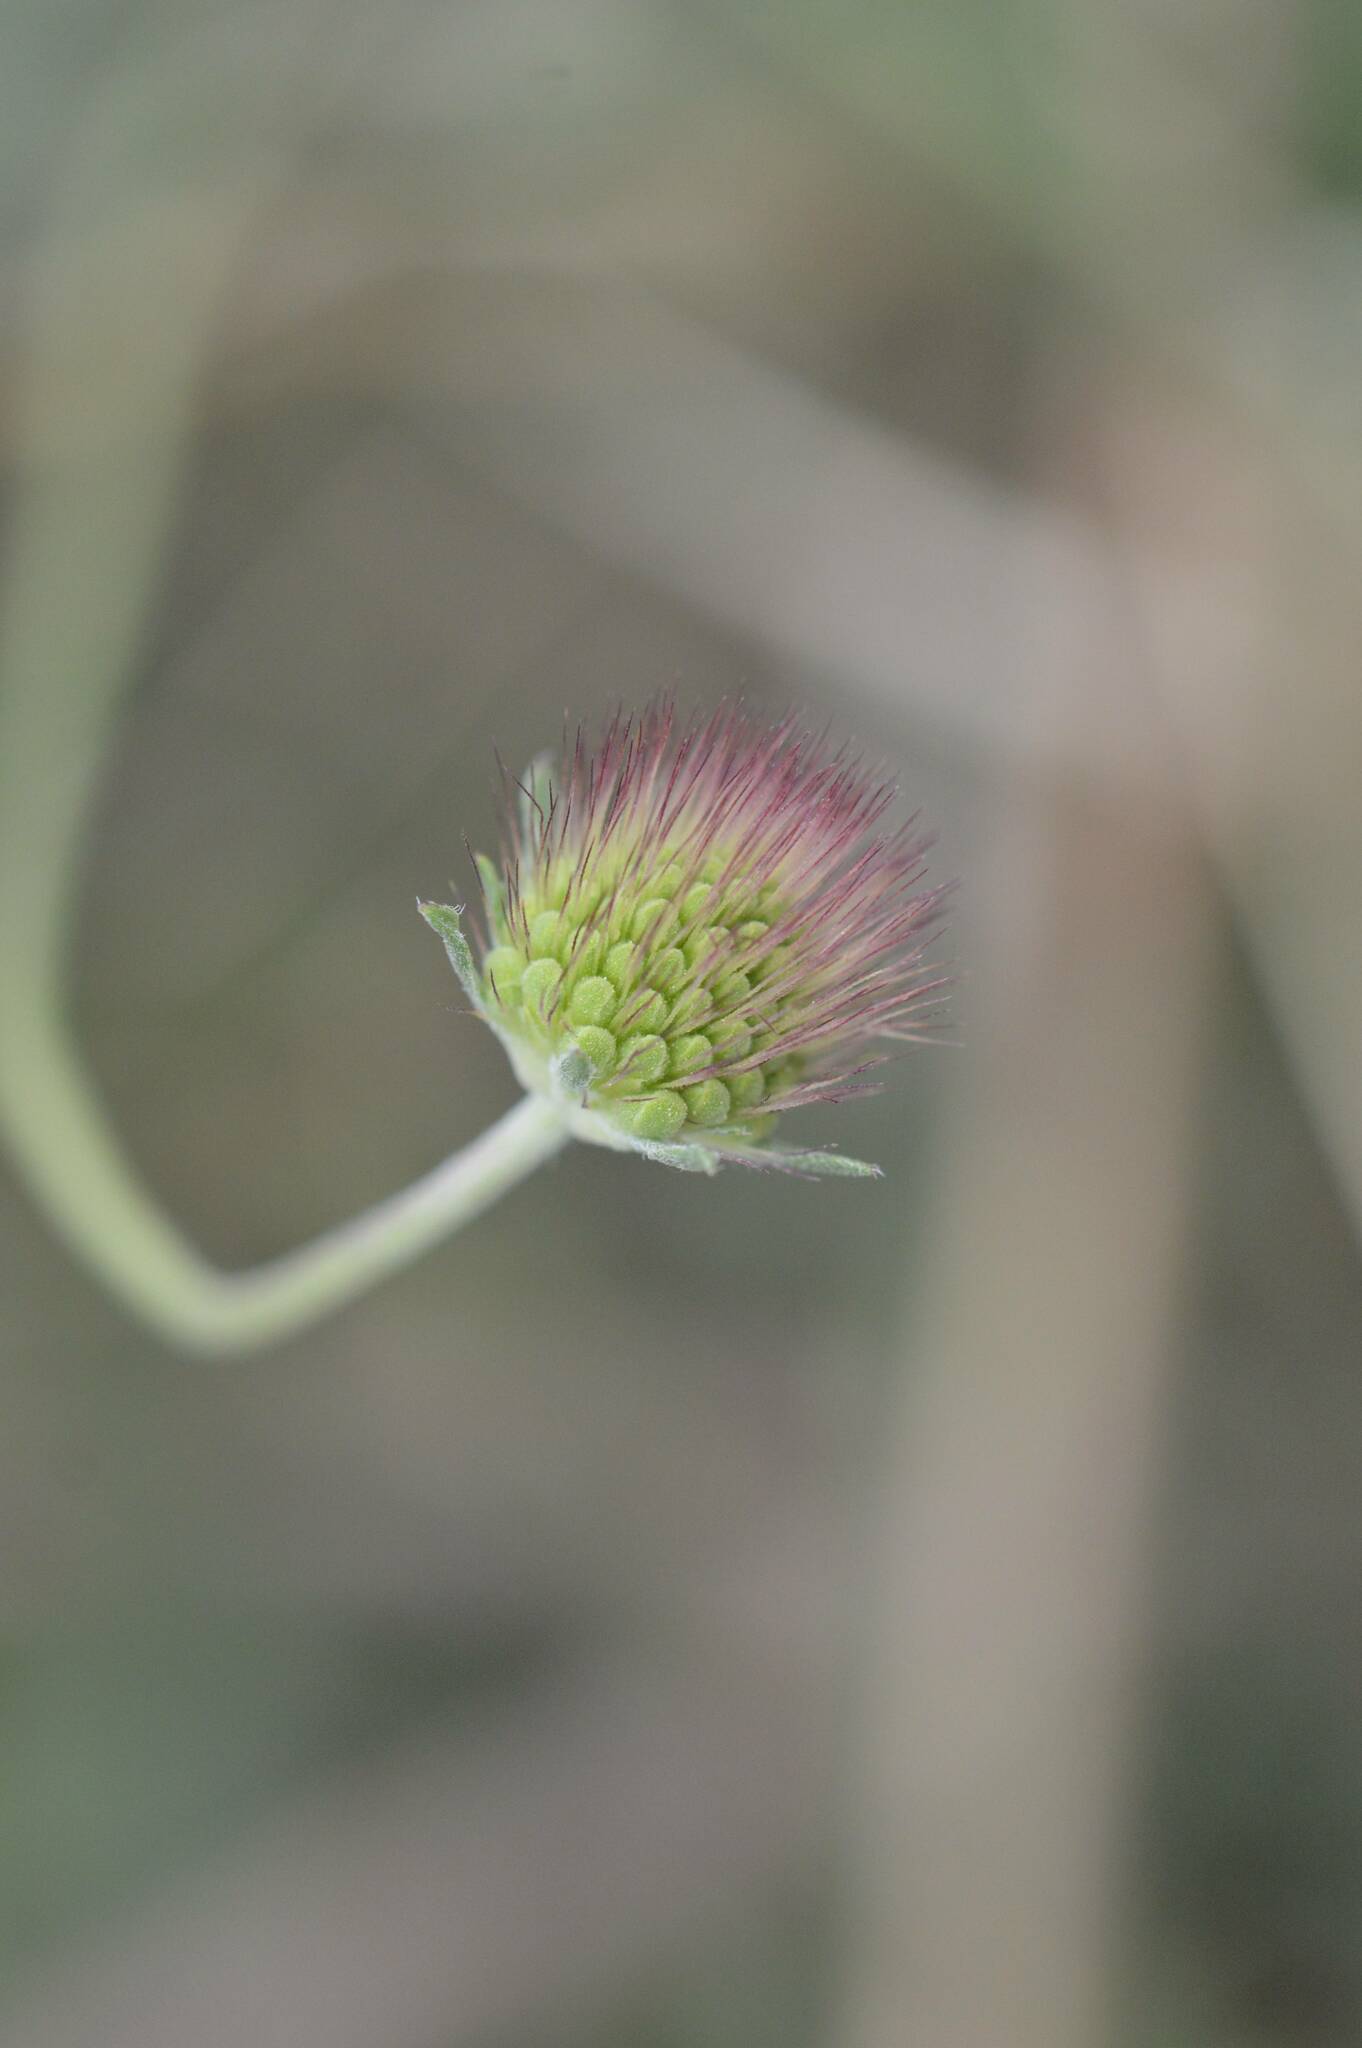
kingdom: Plantae
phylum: Tracheophyta
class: Magnoliopsida
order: Dipsacales
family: Caprifoliaceae
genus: Scabiosa
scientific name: Scabiosa columbaria
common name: Small scabious
